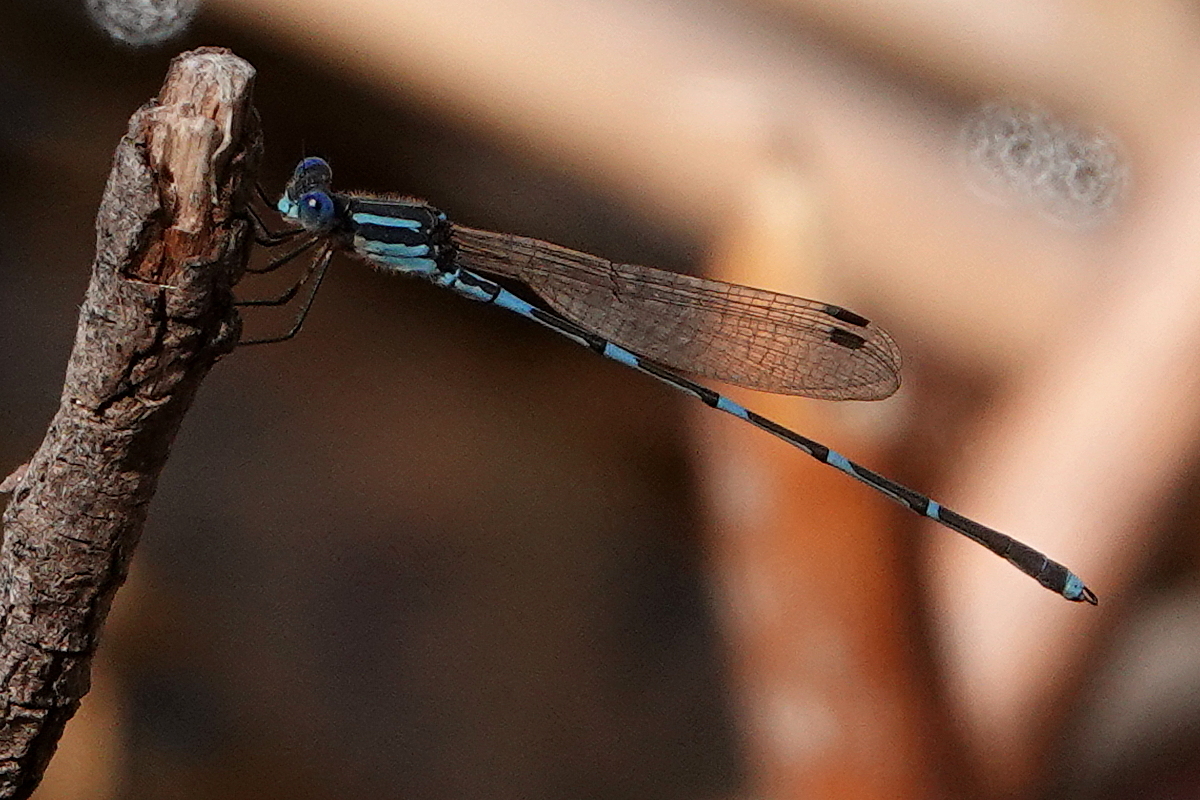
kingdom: Animalia
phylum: Arthropoda
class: Insecta
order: Odonata
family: Lestidae
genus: Austrolestes
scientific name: Austrolestes leda
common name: Wandering ringtail
